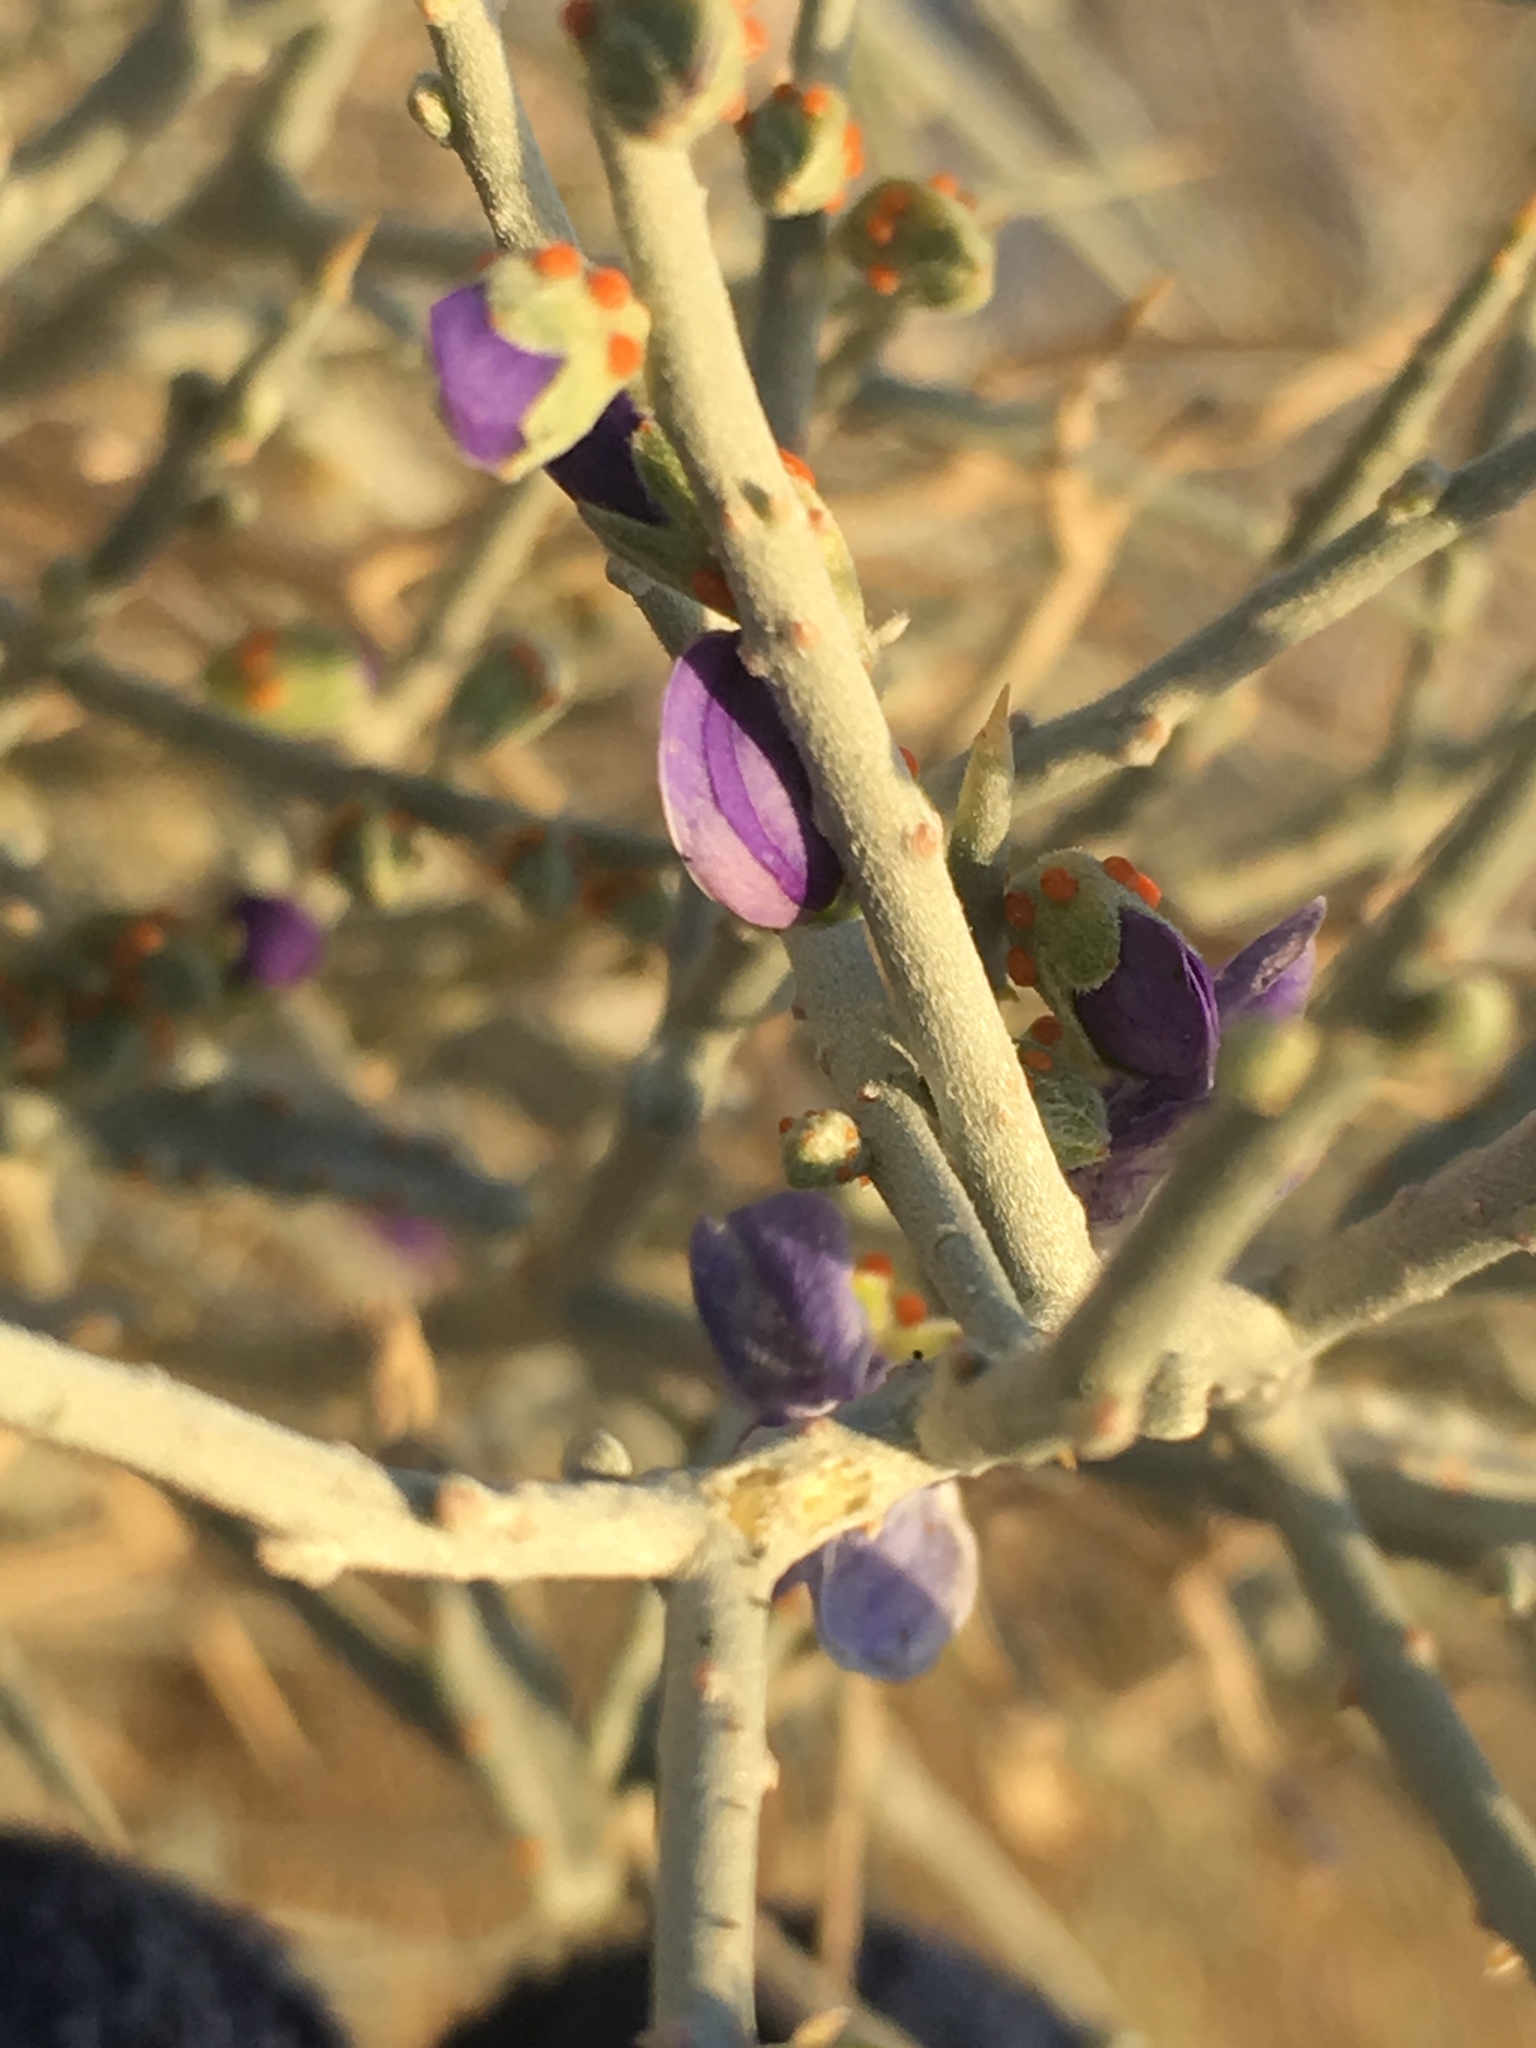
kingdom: Plantae
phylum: Tracheophyta
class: Magnoliopsida
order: Fabales
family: Fabaceae
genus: Psorothamnus
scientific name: Psorothamnus spinosus
